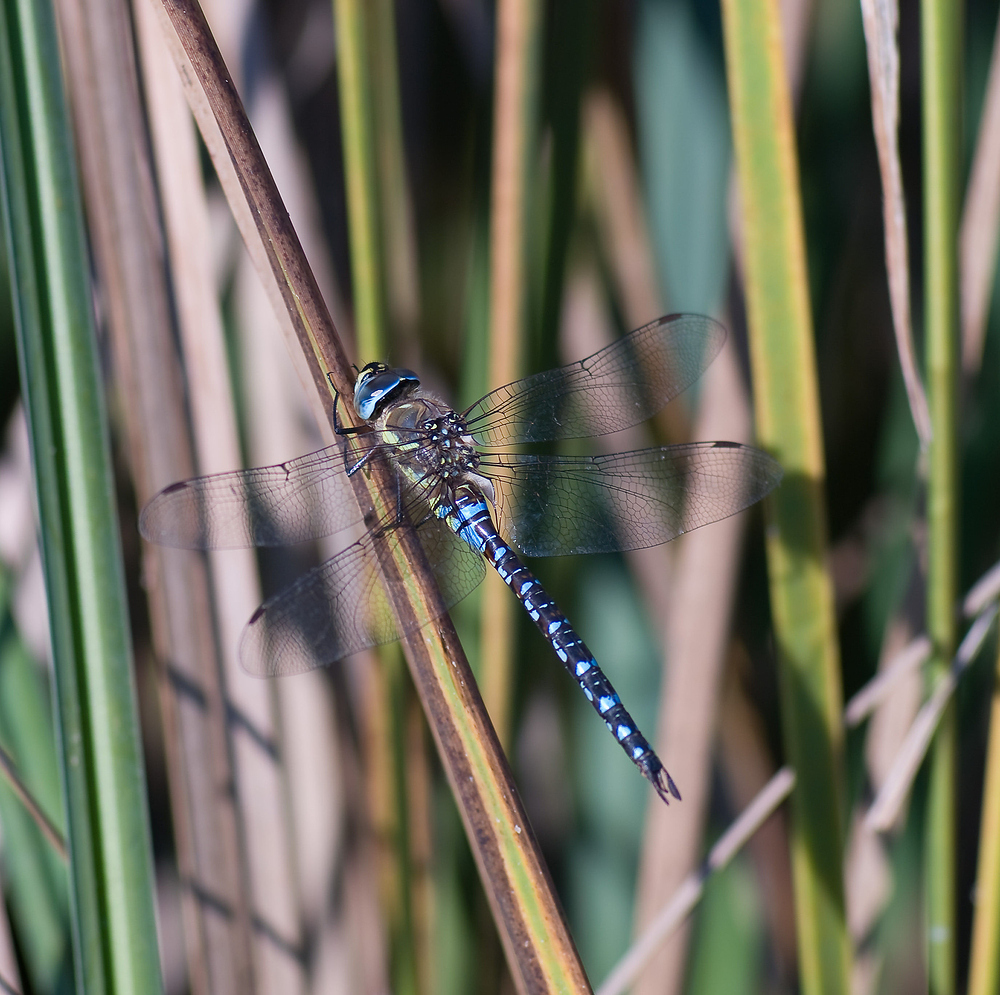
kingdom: Animalia
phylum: Arthropoda
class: Insecta
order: Odonata
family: Aeshnidae
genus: Aeshna
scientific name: Aeshna mixta
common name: Migrant hawker
